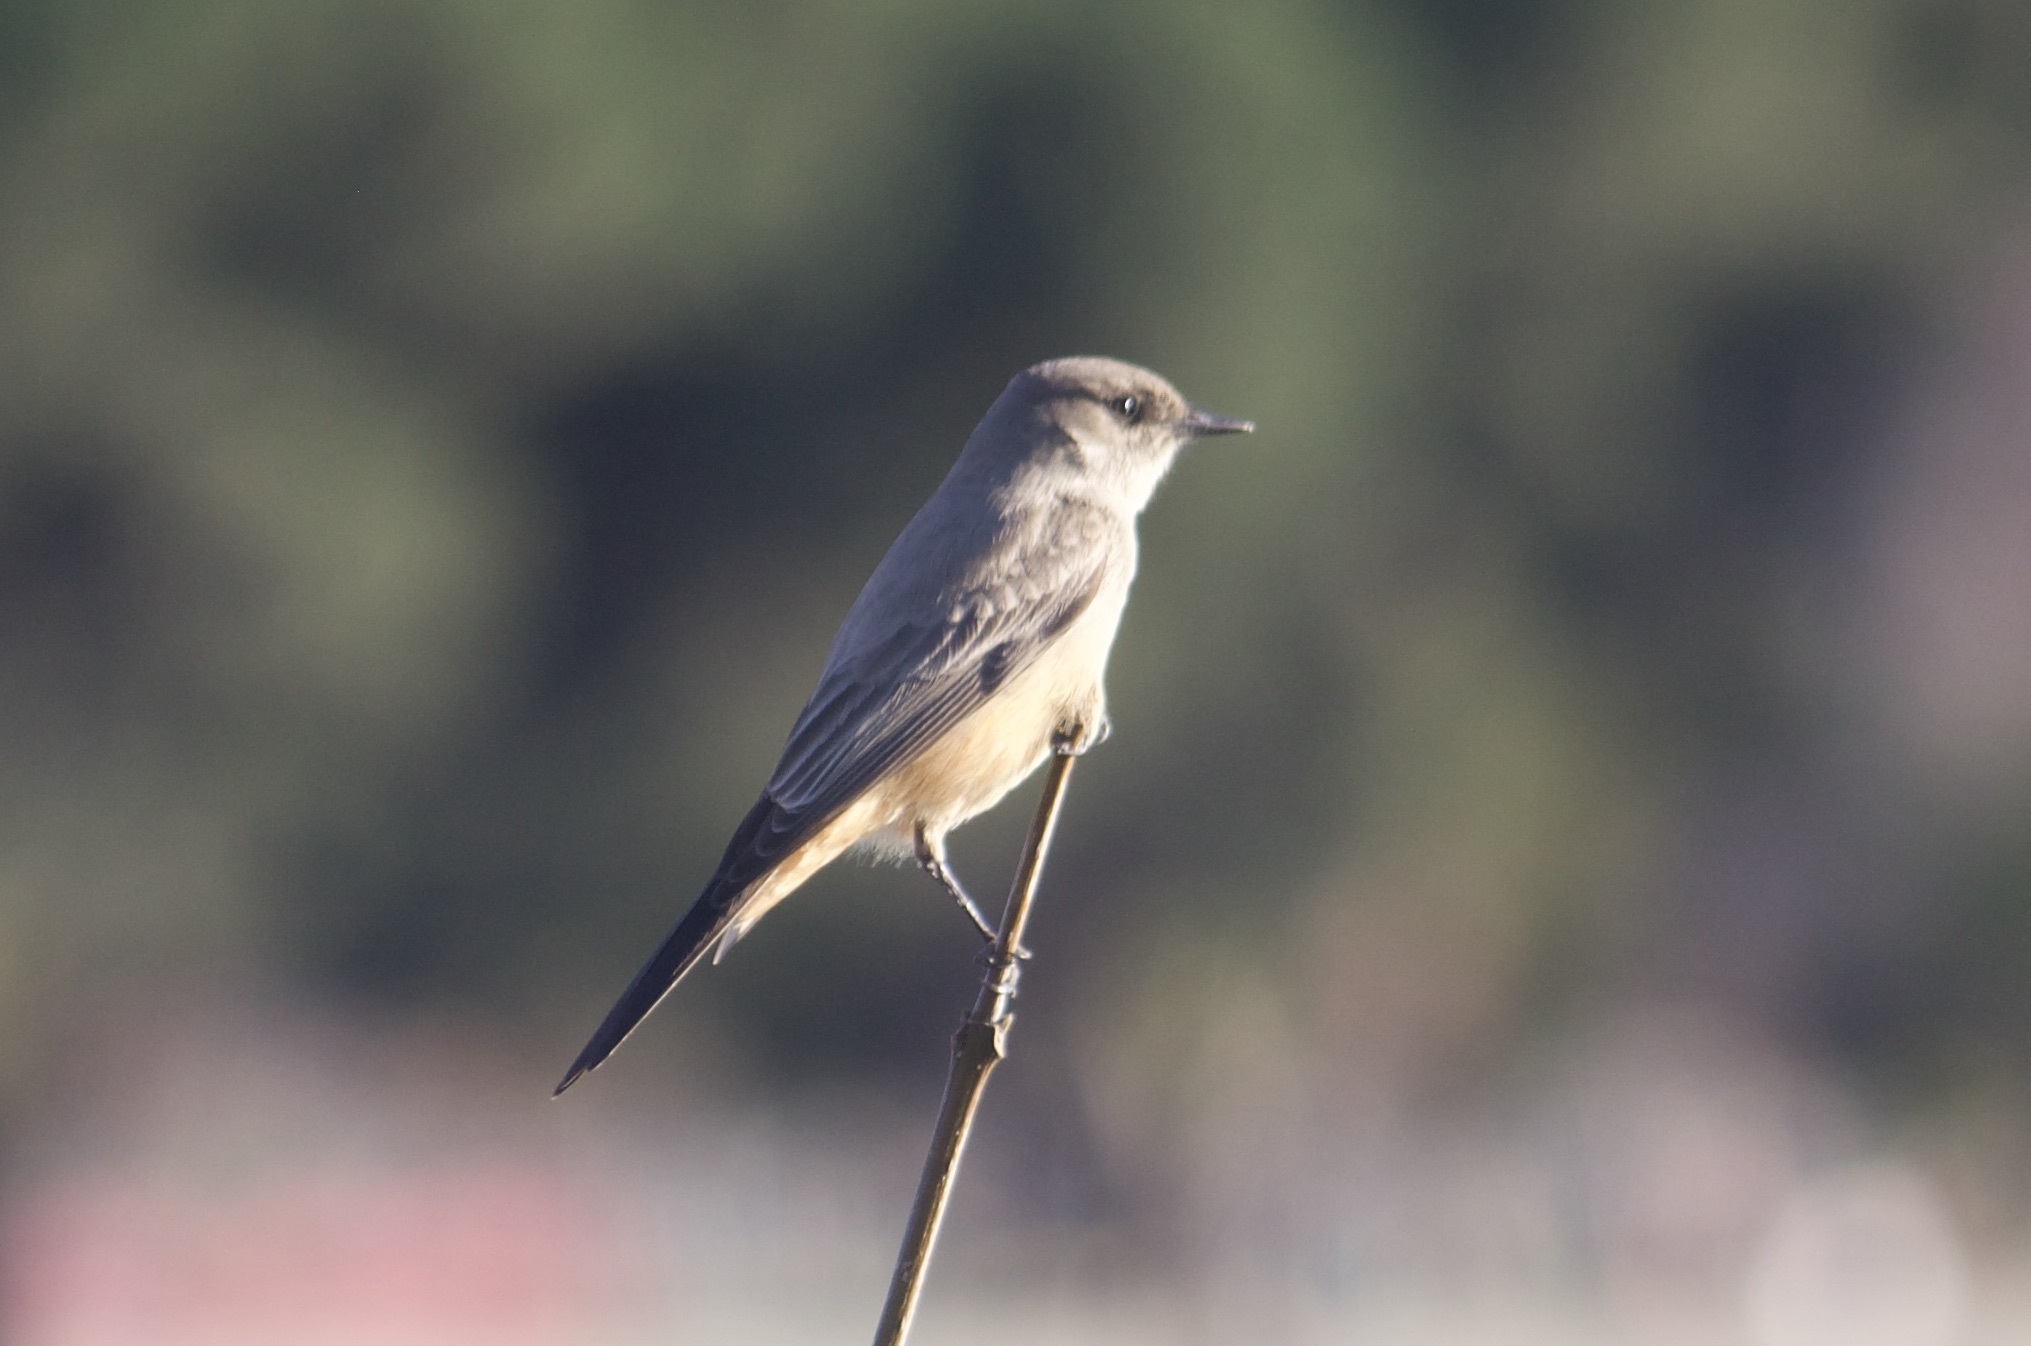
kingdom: Animalia
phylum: Chordata
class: Aves
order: Passeriformes
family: Tyrannidae
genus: Sayornis
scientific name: Sayornis saya
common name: Say's phoebe
